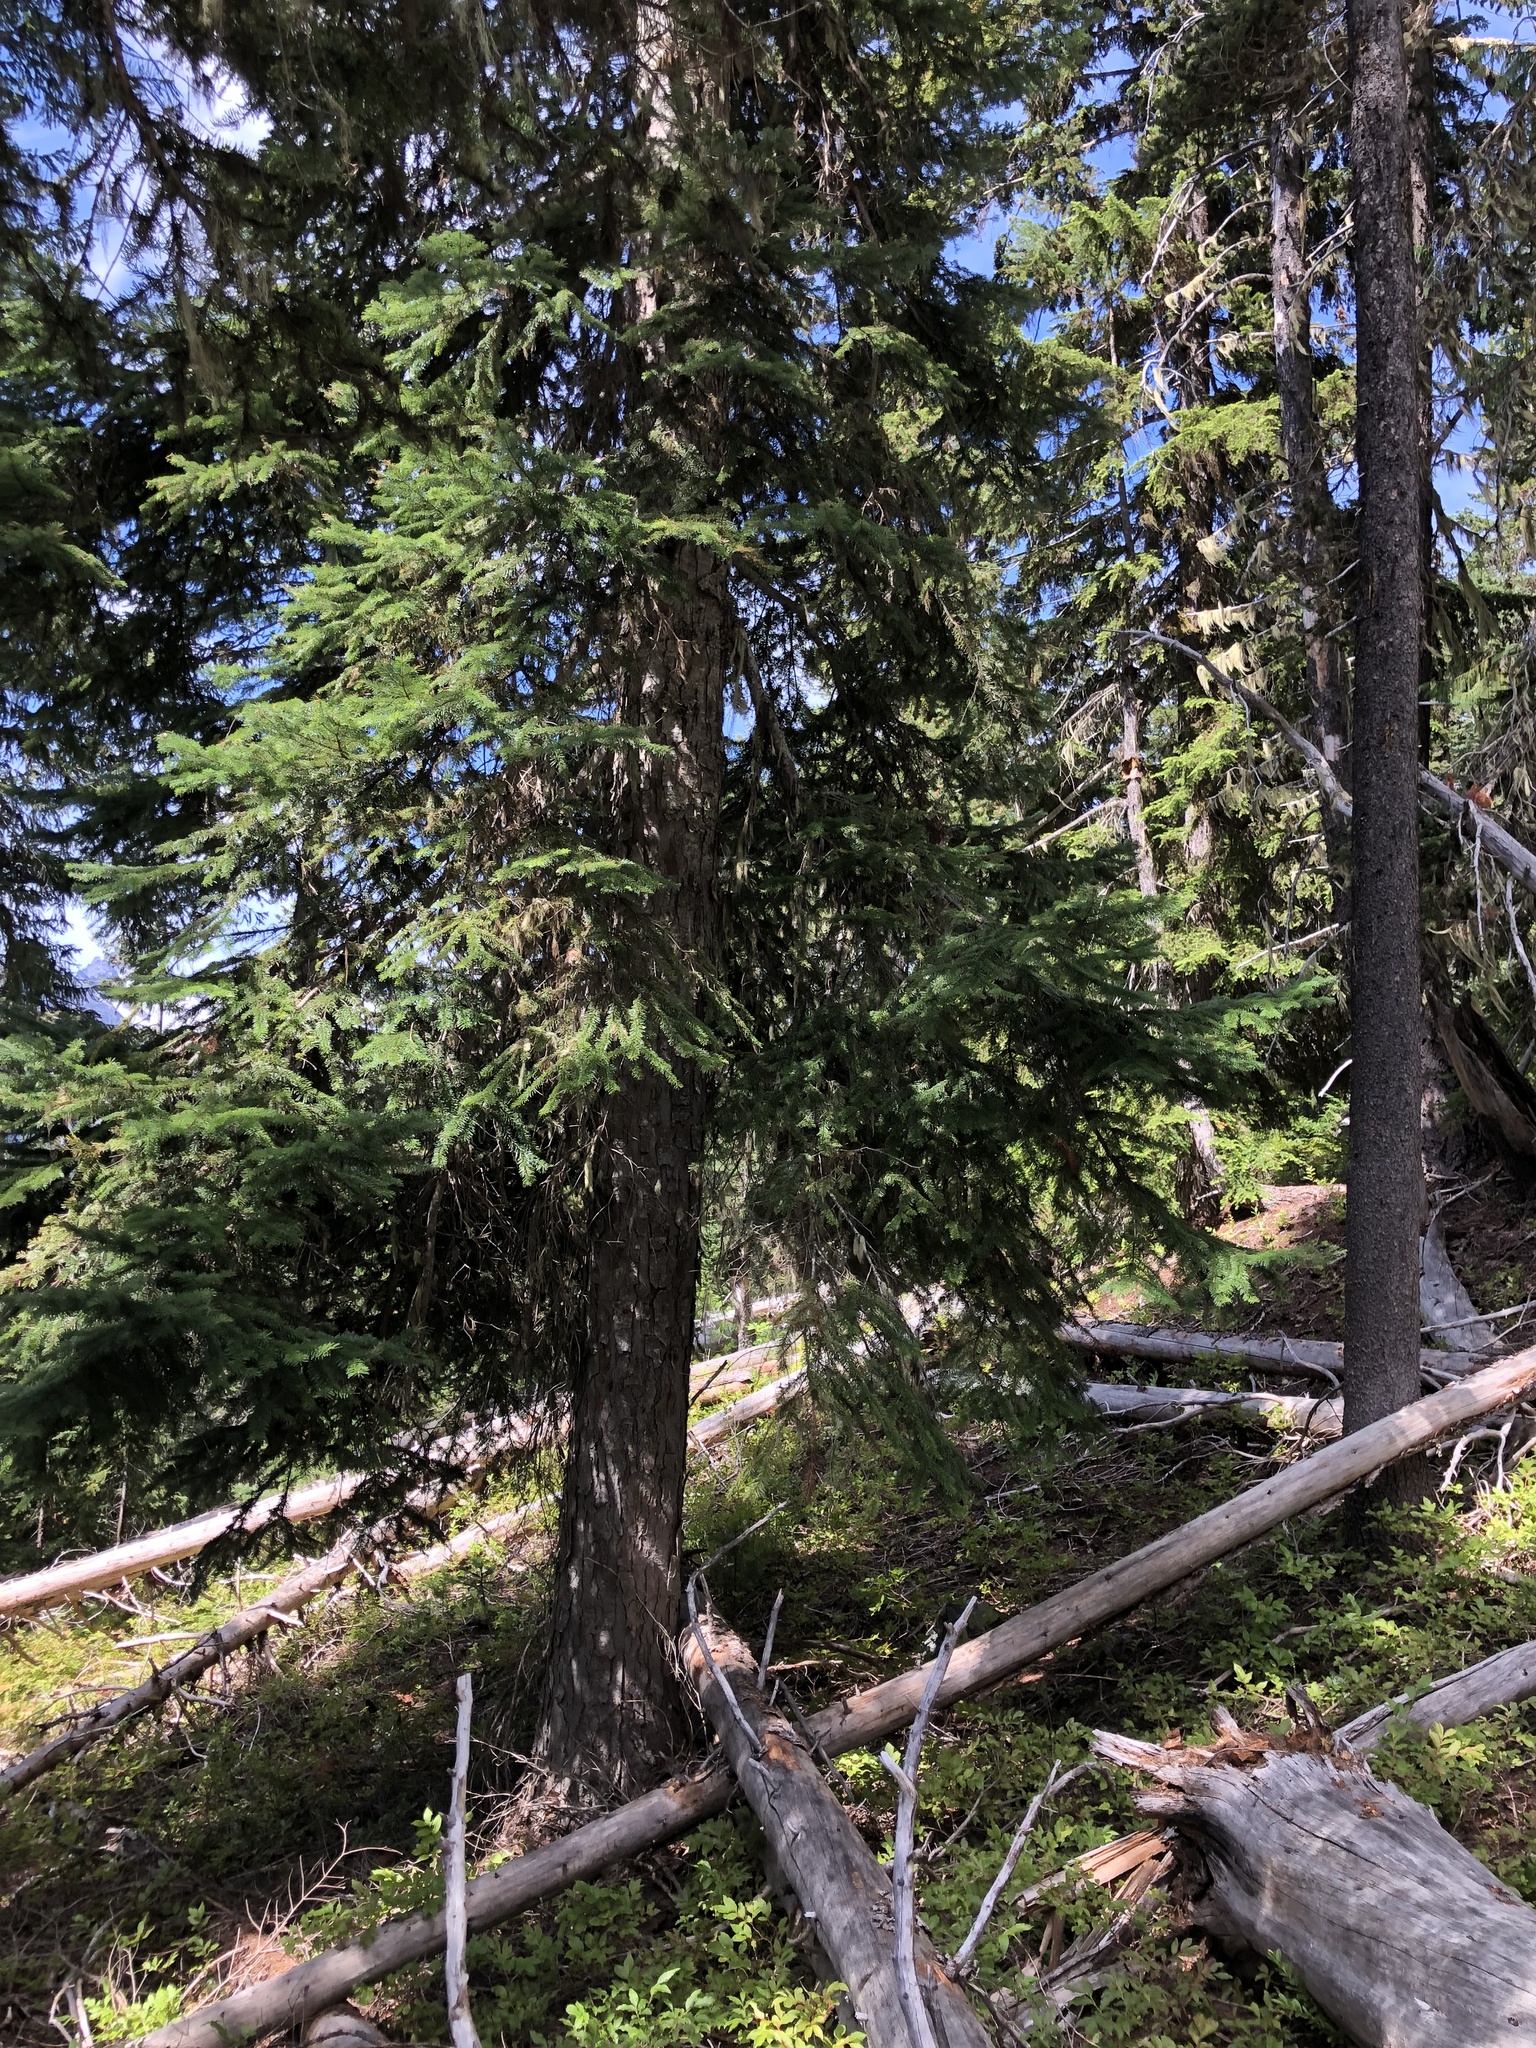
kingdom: Plantae
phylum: Tracheophyta
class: Pinopsida
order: Pinales
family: Pinaceae
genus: Abies
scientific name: Abies amabilis
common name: Pacific silver fir
